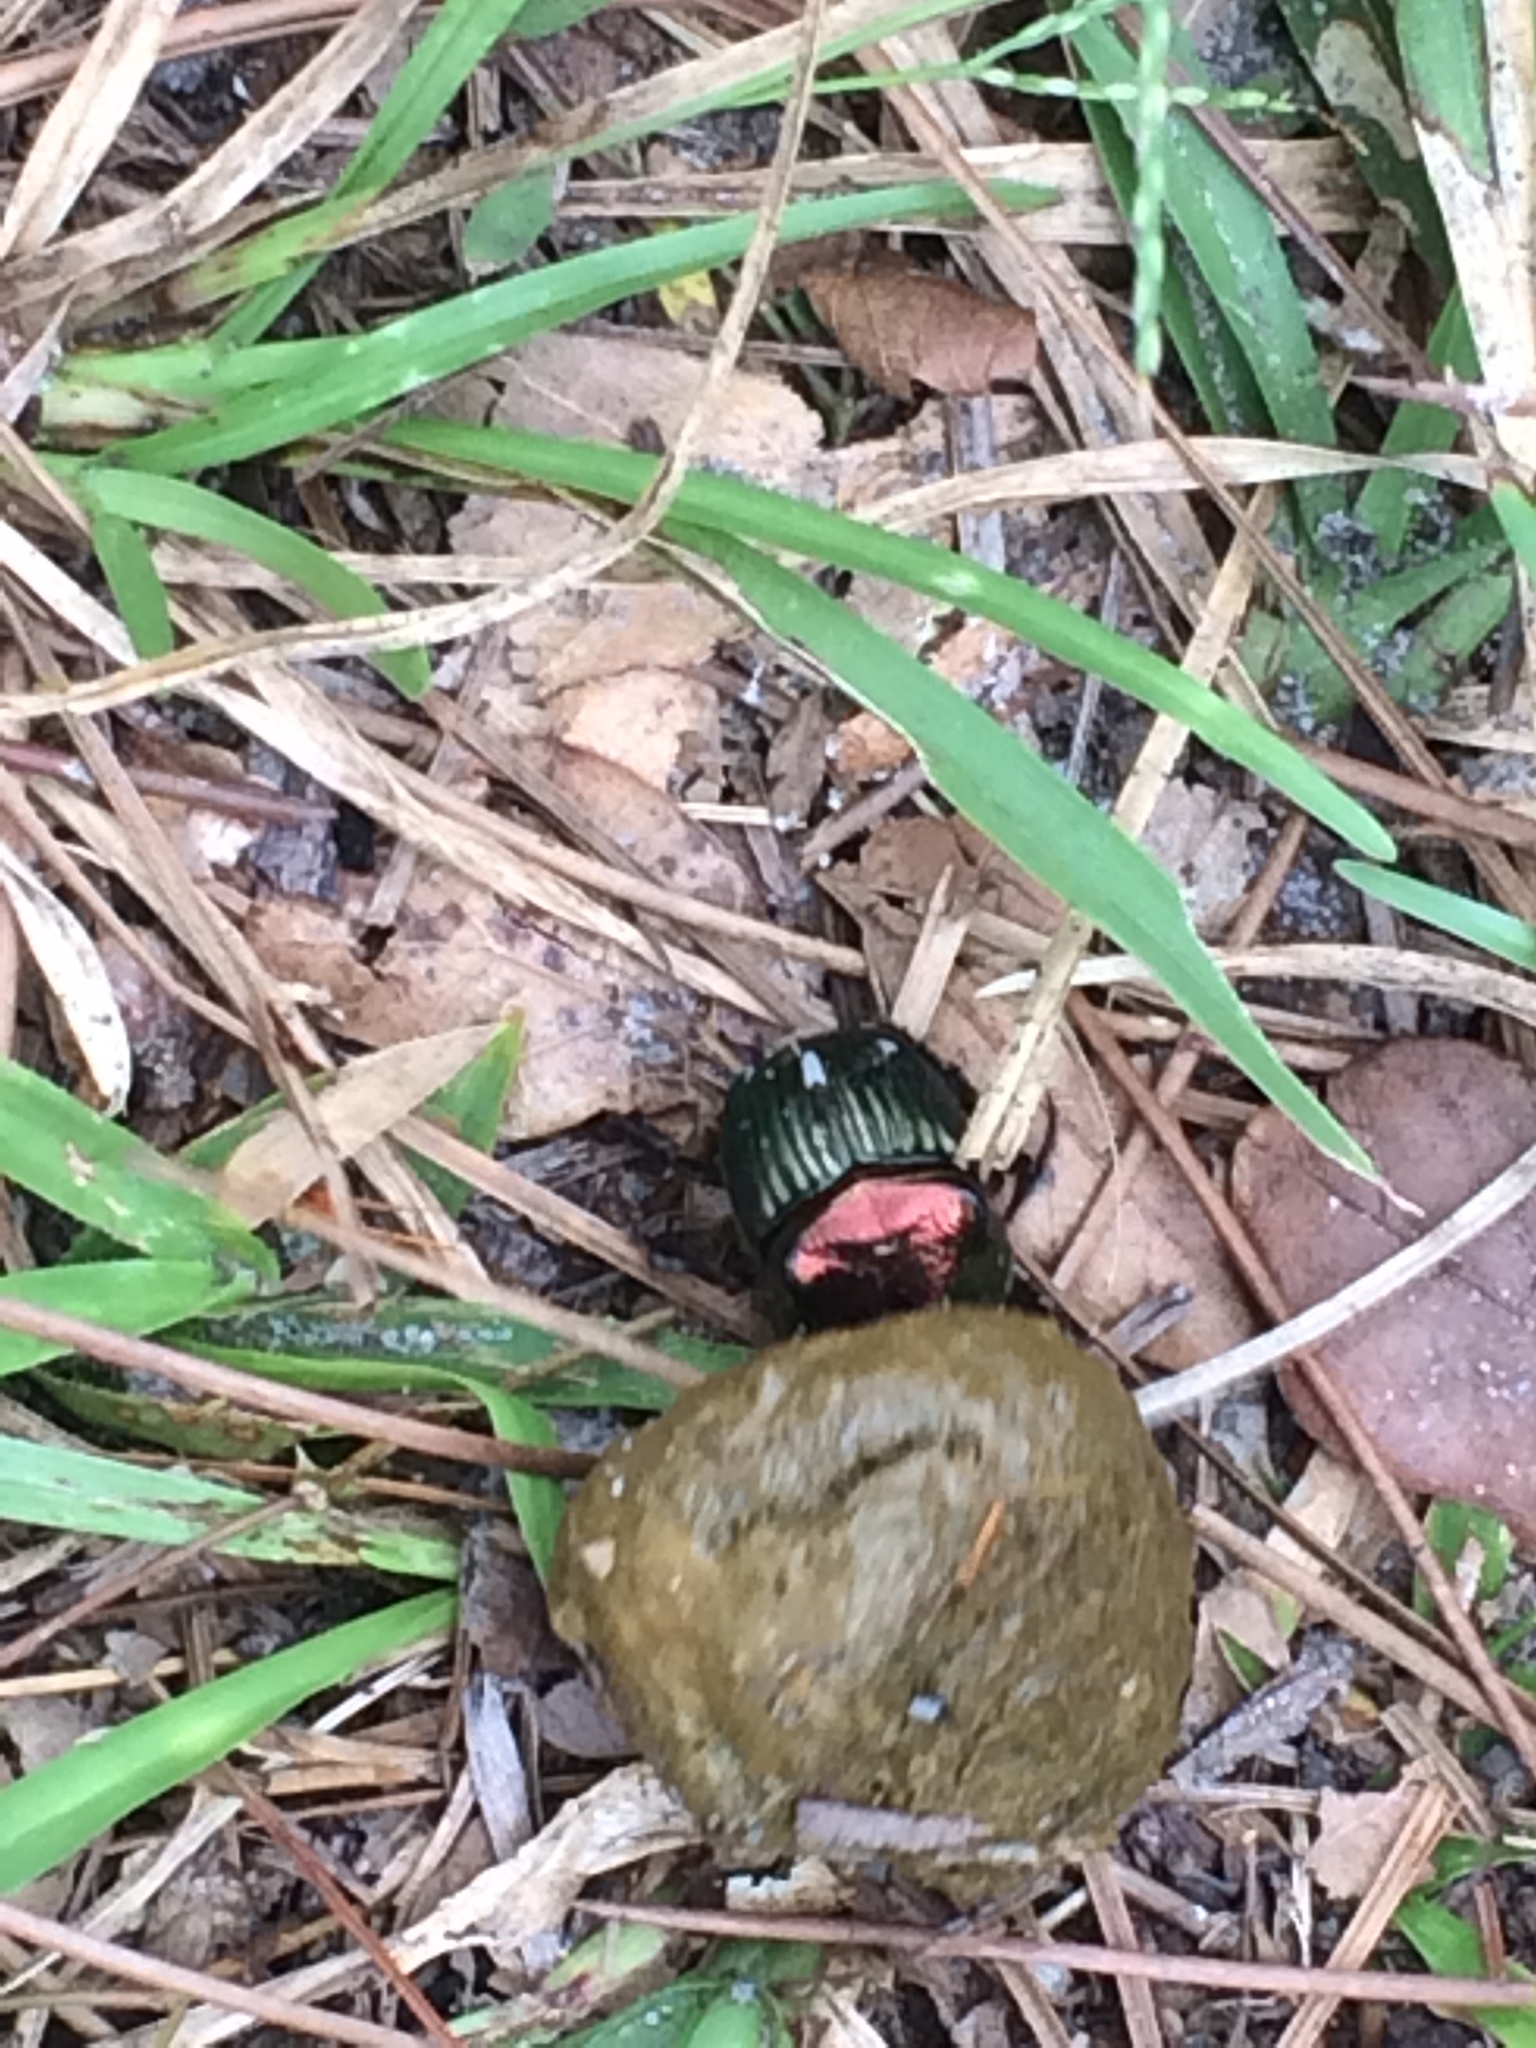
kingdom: Animalia
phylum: Arthropoda
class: Insecta
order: Coleoptera
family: Scarabaeidae
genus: Phanaeus
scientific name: Phanaeus igneus
